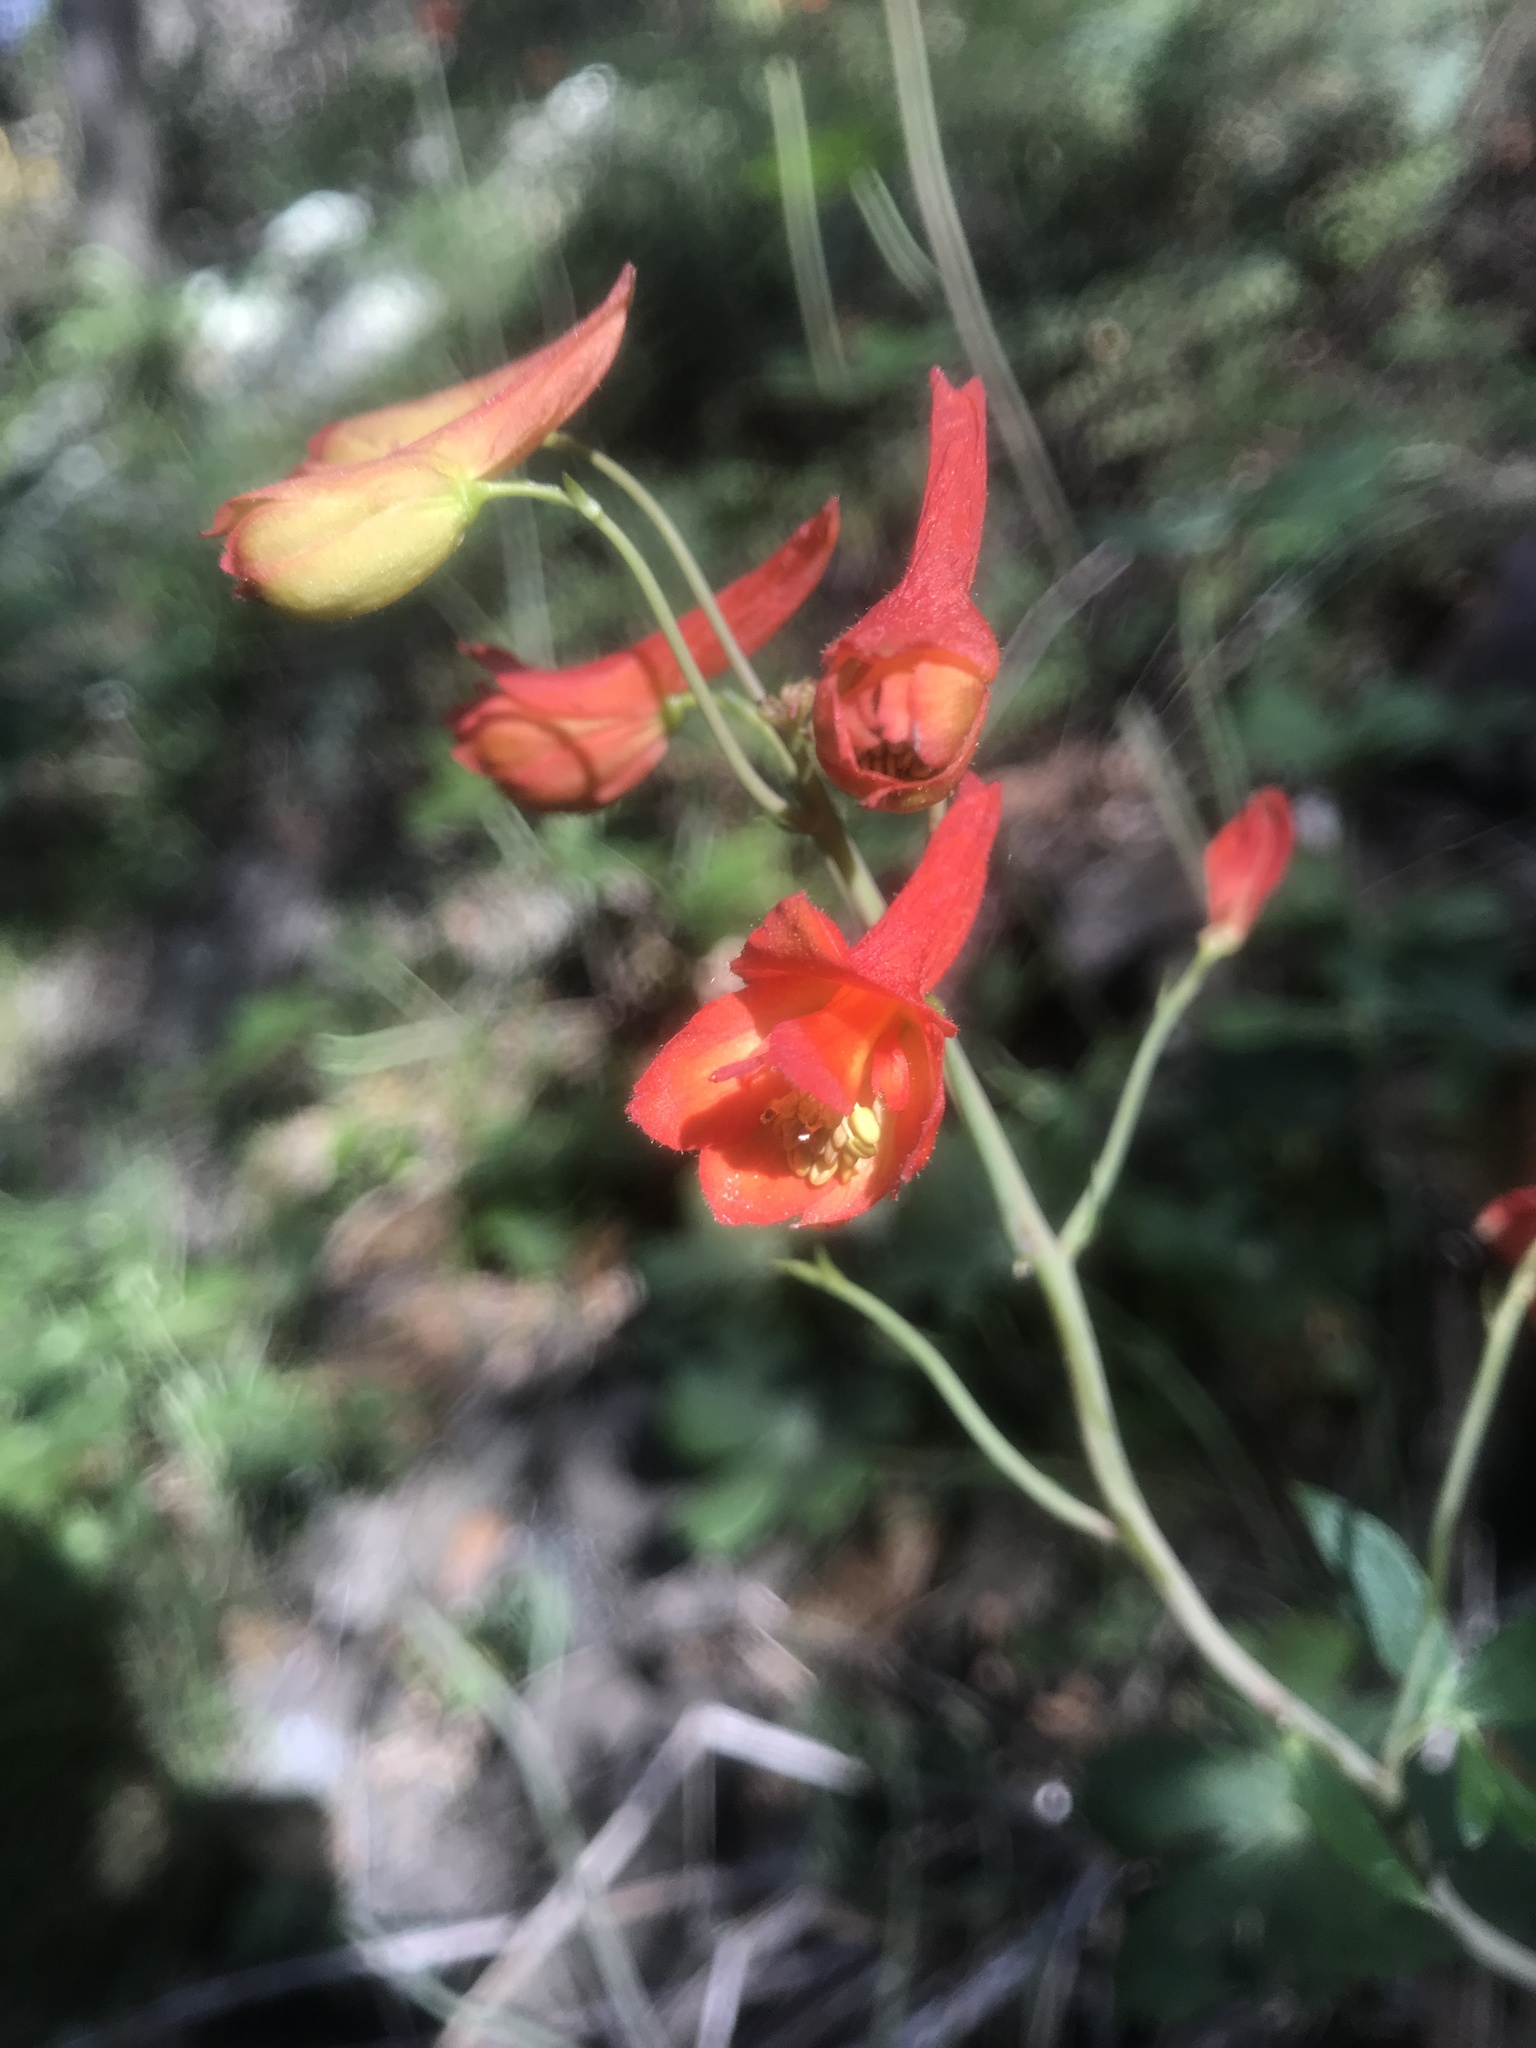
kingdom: Plantae
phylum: Tracheophyta
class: Magnoliopsida
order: Ranunculales
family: Ranunculaceae
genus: Delphinium
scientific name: Delphinium nudicaule
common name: Red larkspur
